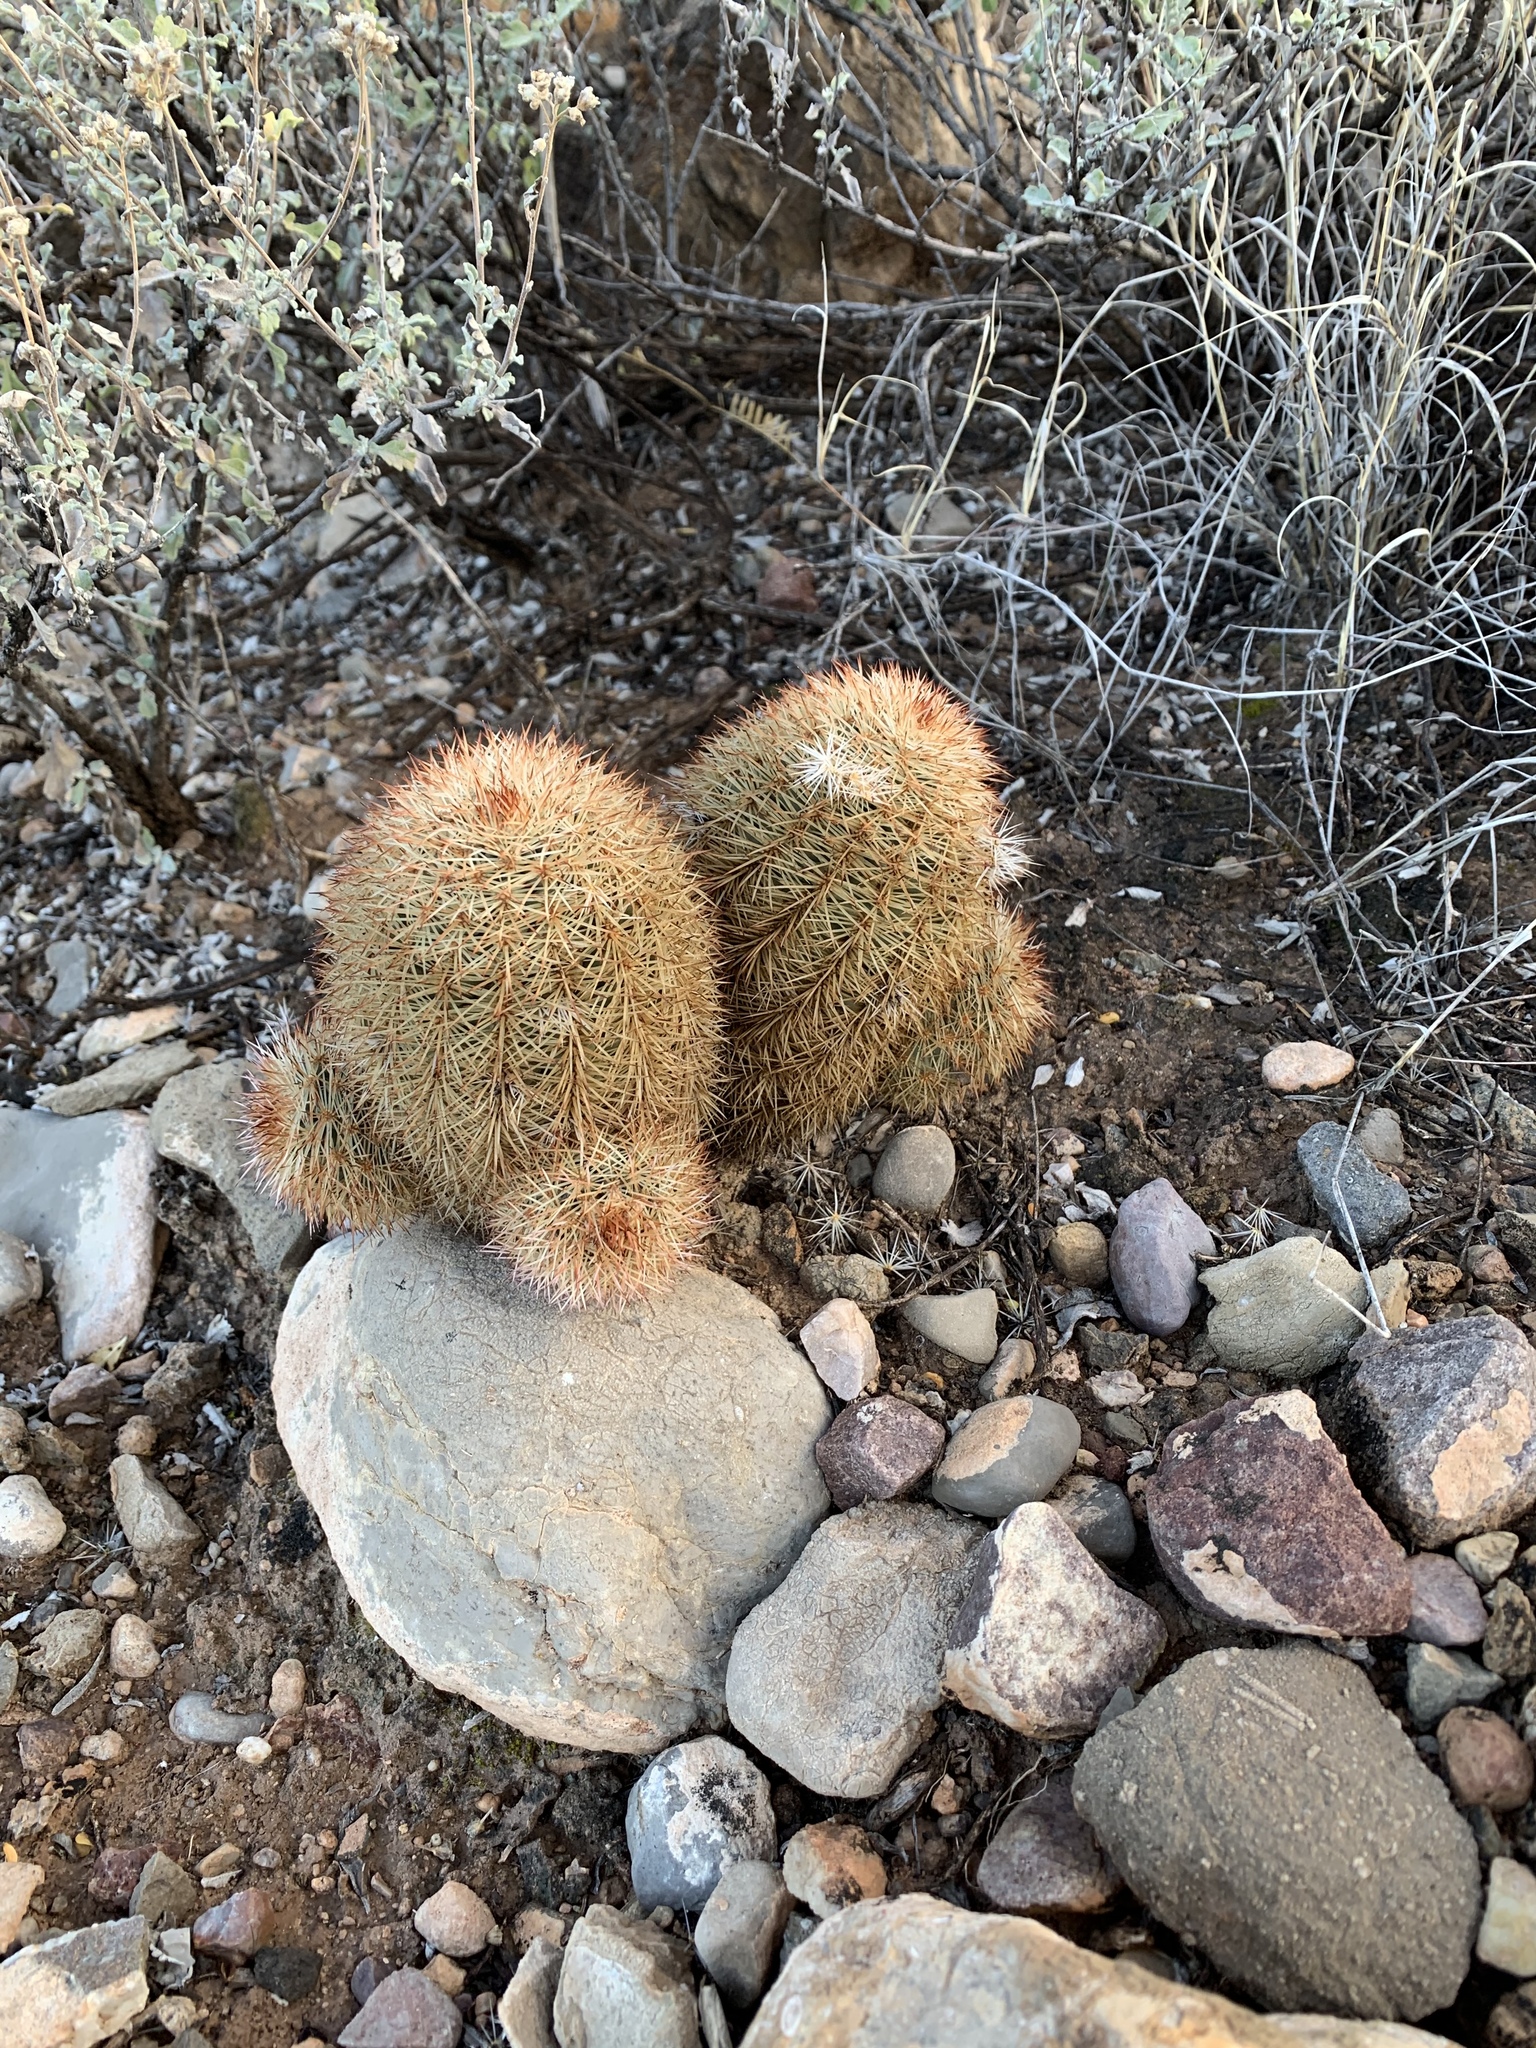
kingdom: Plantae
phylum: Tracheophyta
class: Magnoliopsida
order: Caryophyllales
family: Cactaceae
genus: Echinocereus
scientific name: Echinocereus dasyacanthus
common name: Spiny hedgehog cactus
